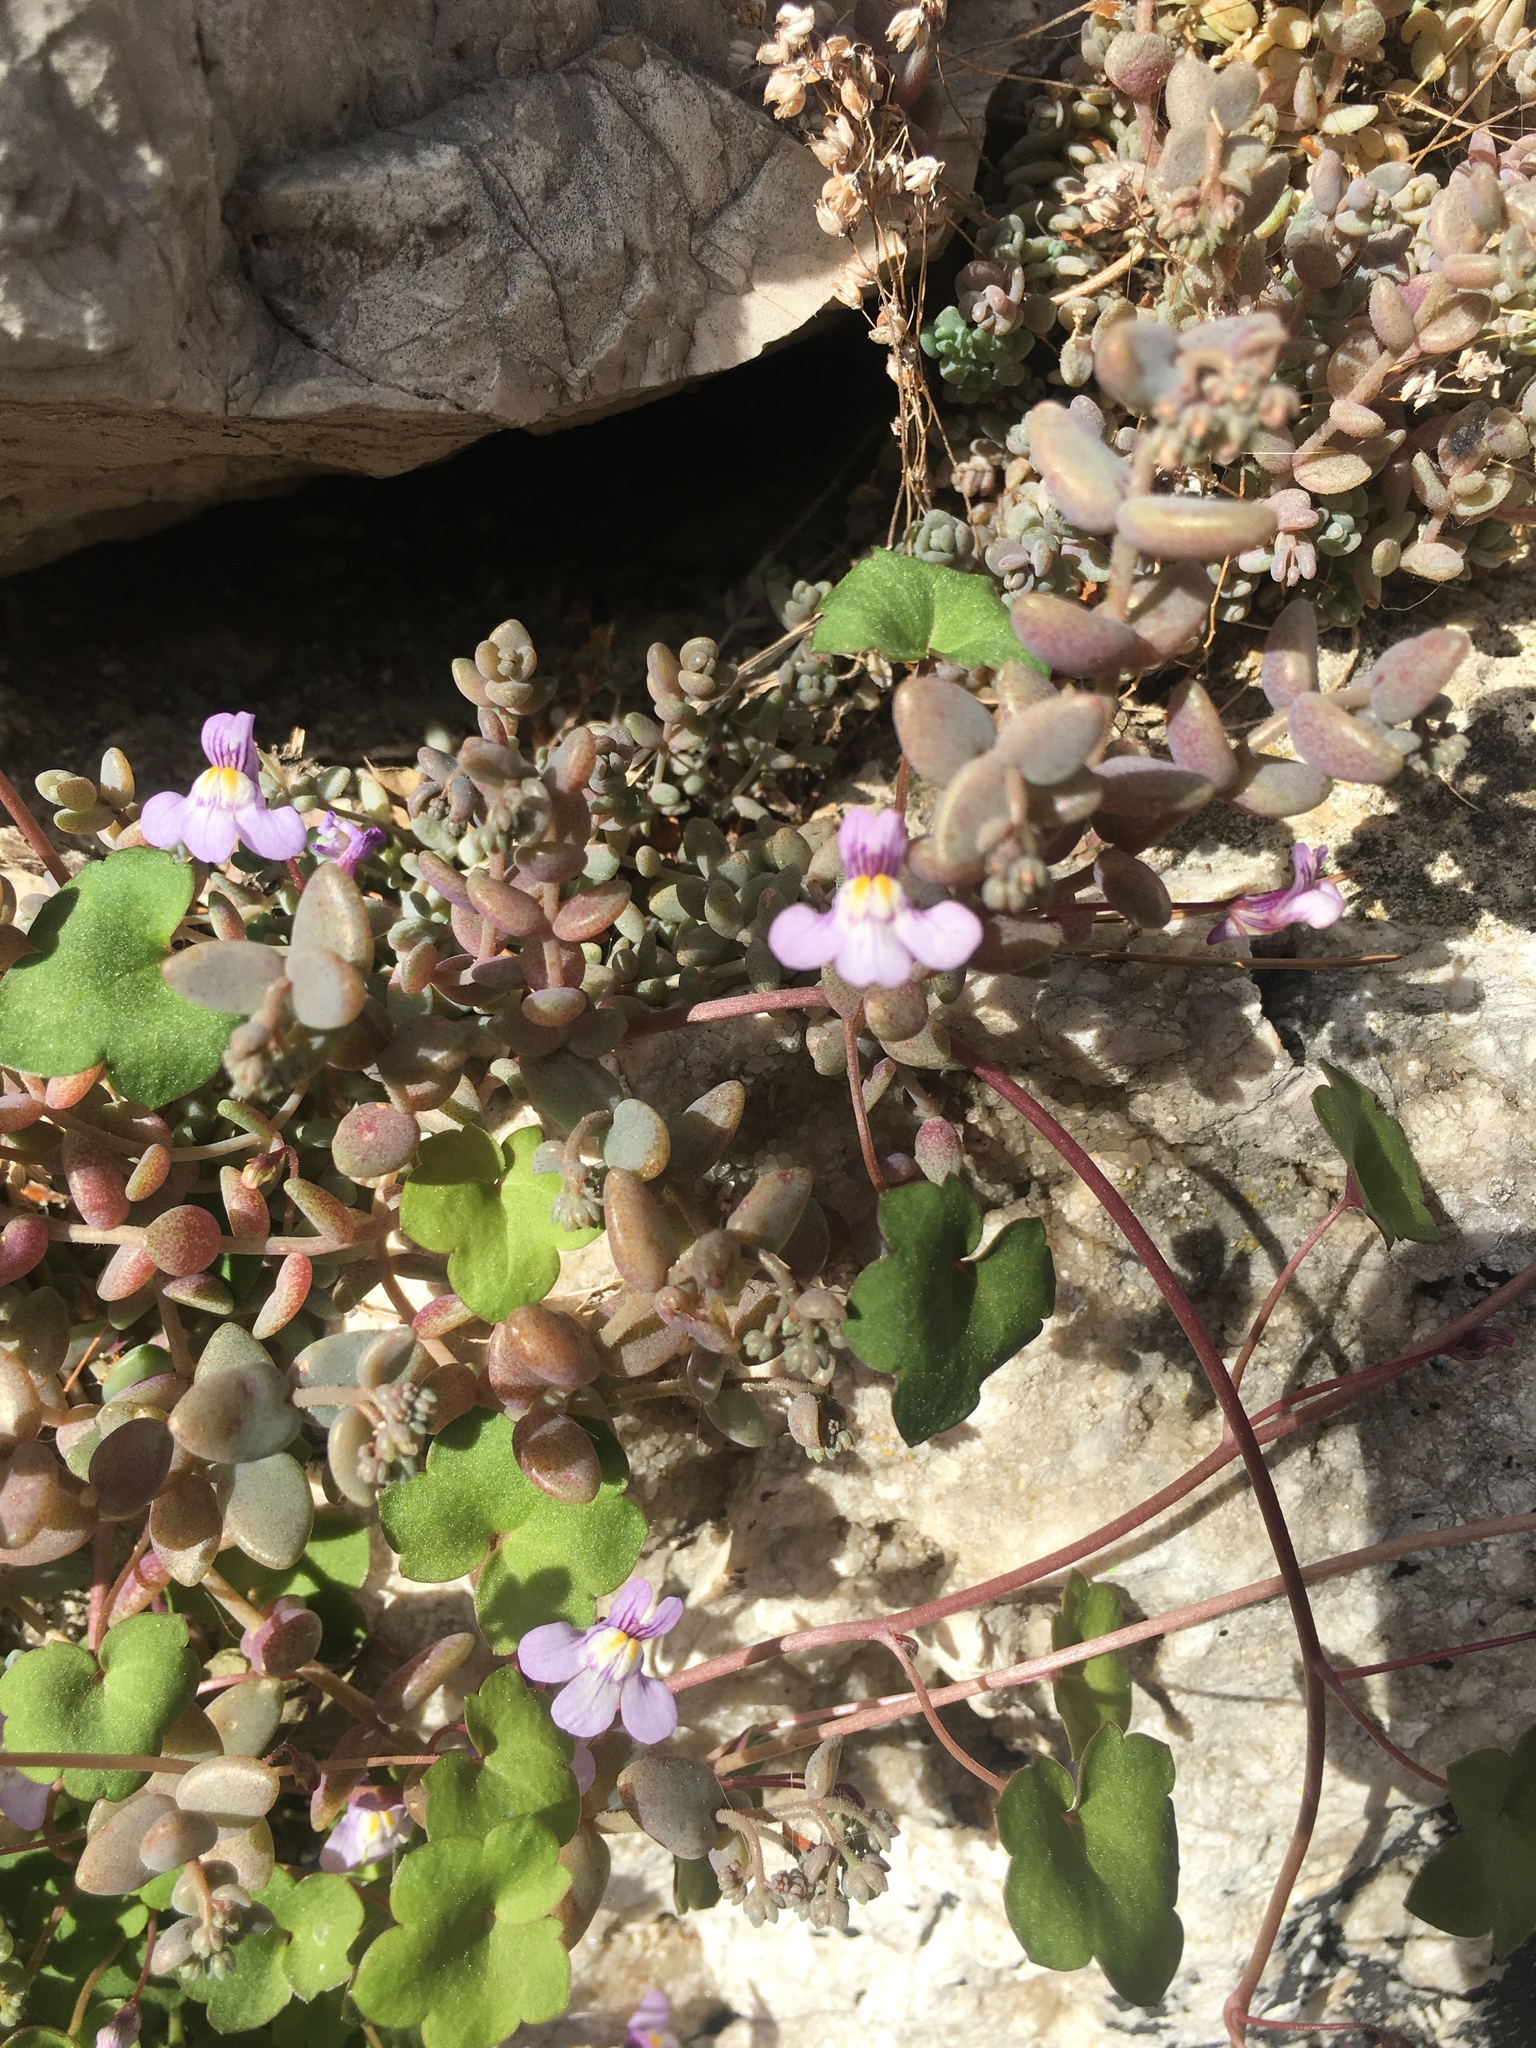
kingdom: Plantae
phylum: Tracheophyta
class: Magnoliopsida
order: Lamiales
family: Plantaginaceae
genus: Cymbalaria
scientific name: Cymbalaria muralis
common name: Ivy-leaved toadflax
